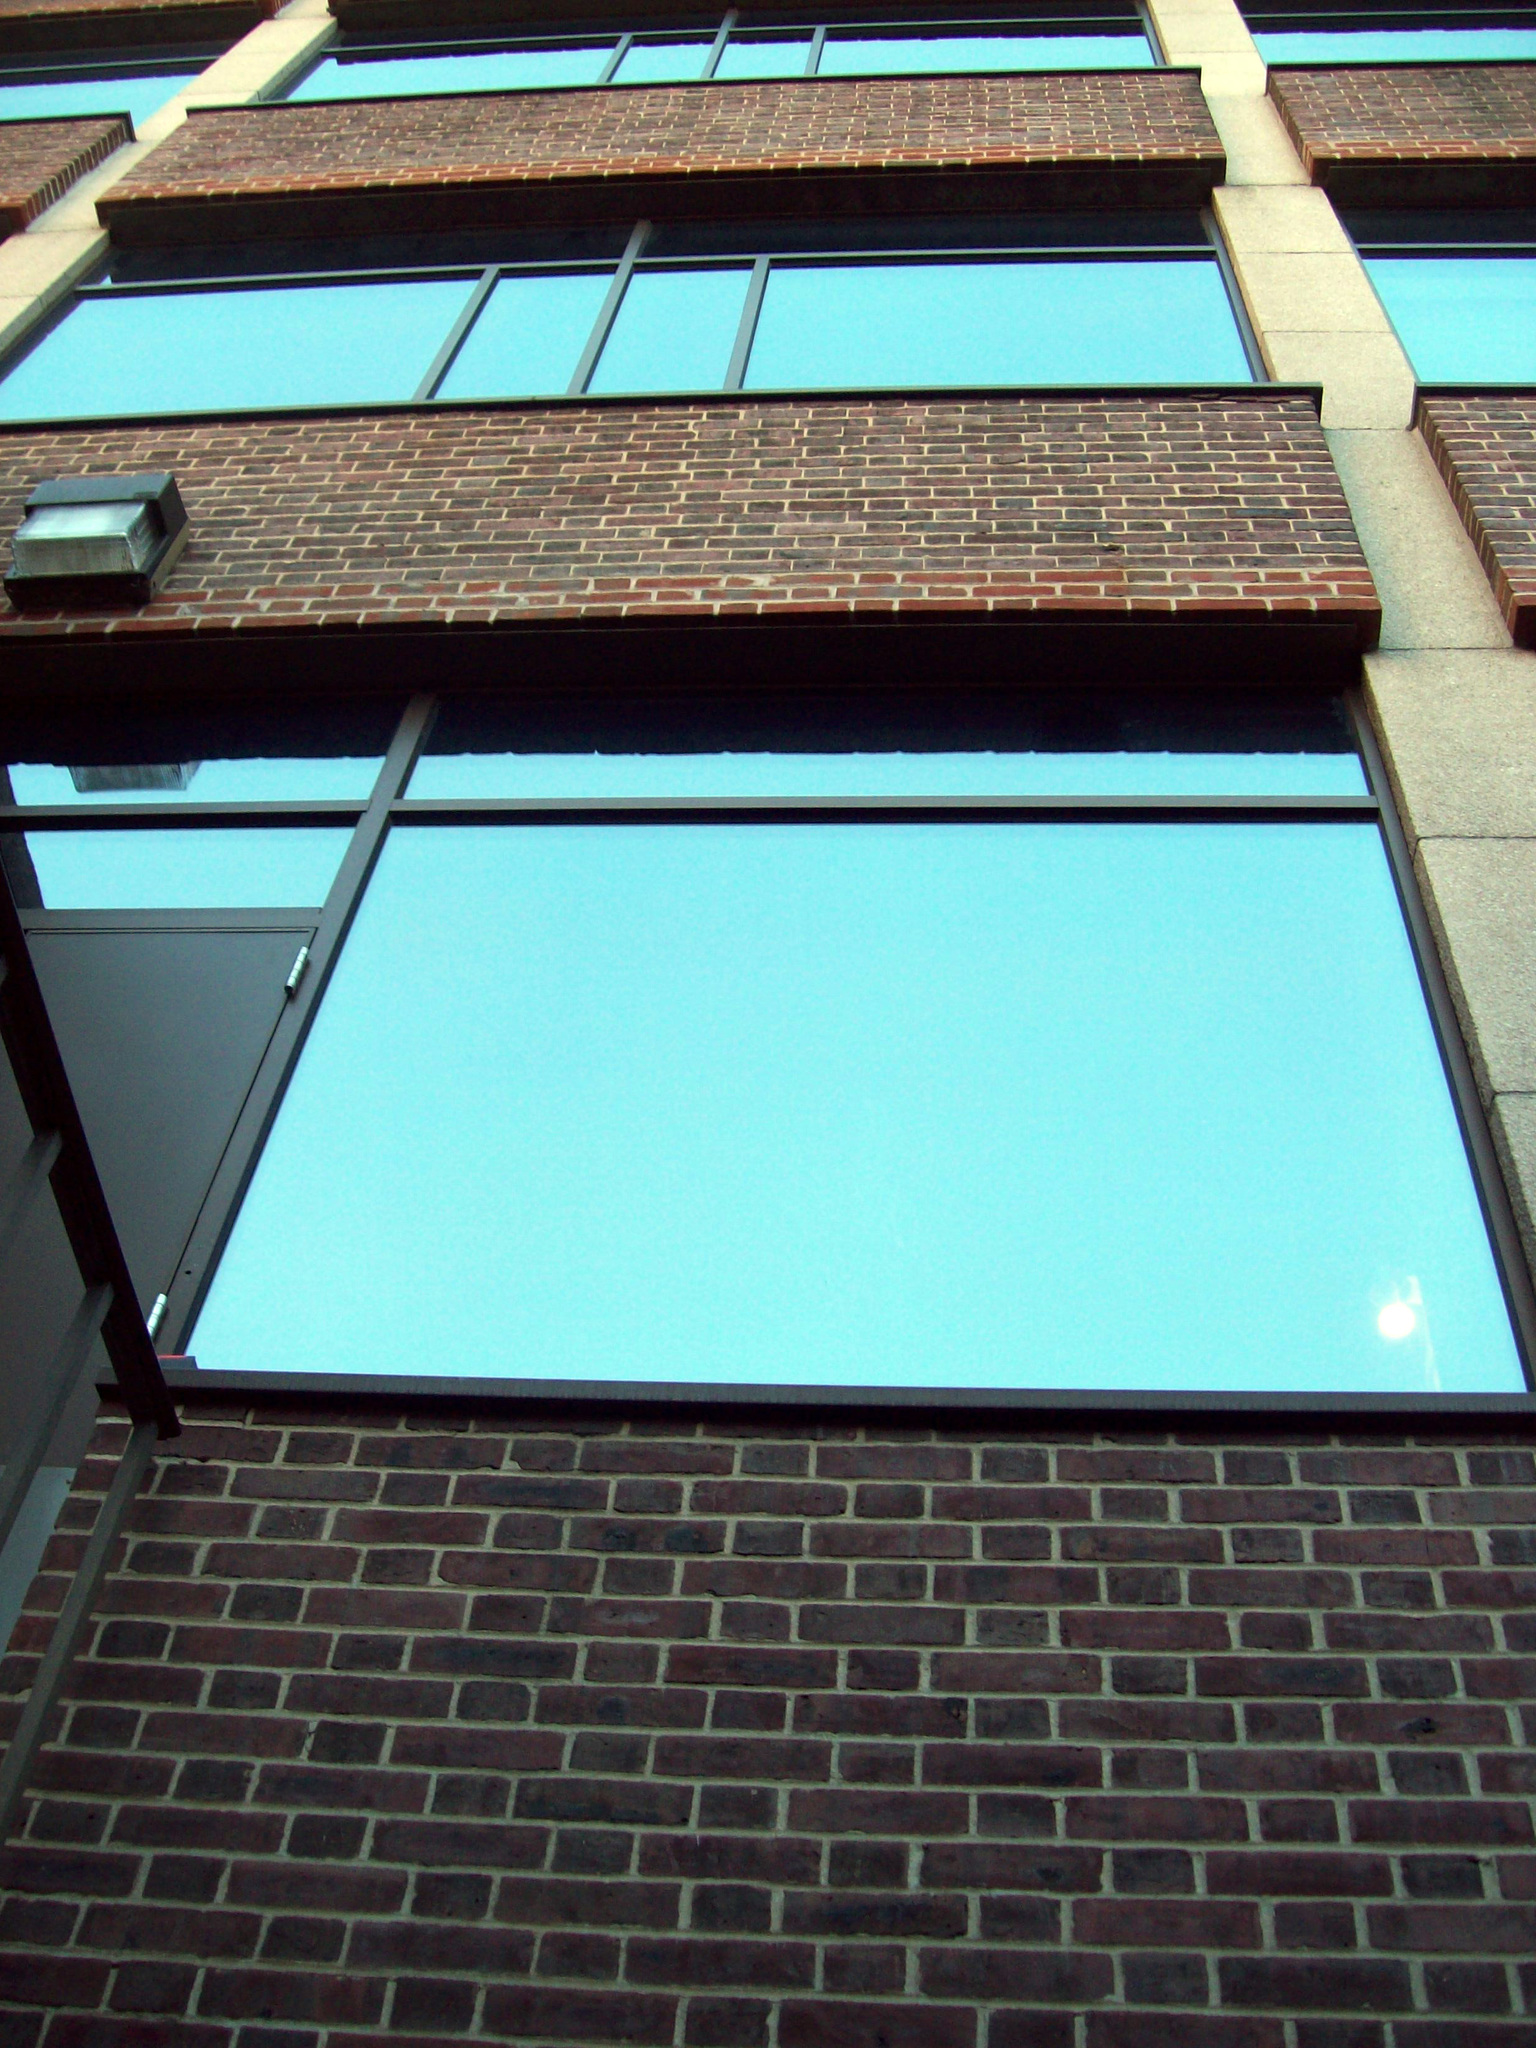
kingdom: Animalia
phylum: Chordata
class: Aves
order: Passeriformes
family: Passerellidae
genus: Zonotrichia
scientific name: Zonotrichia albicollis
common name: White-throated sparrow
